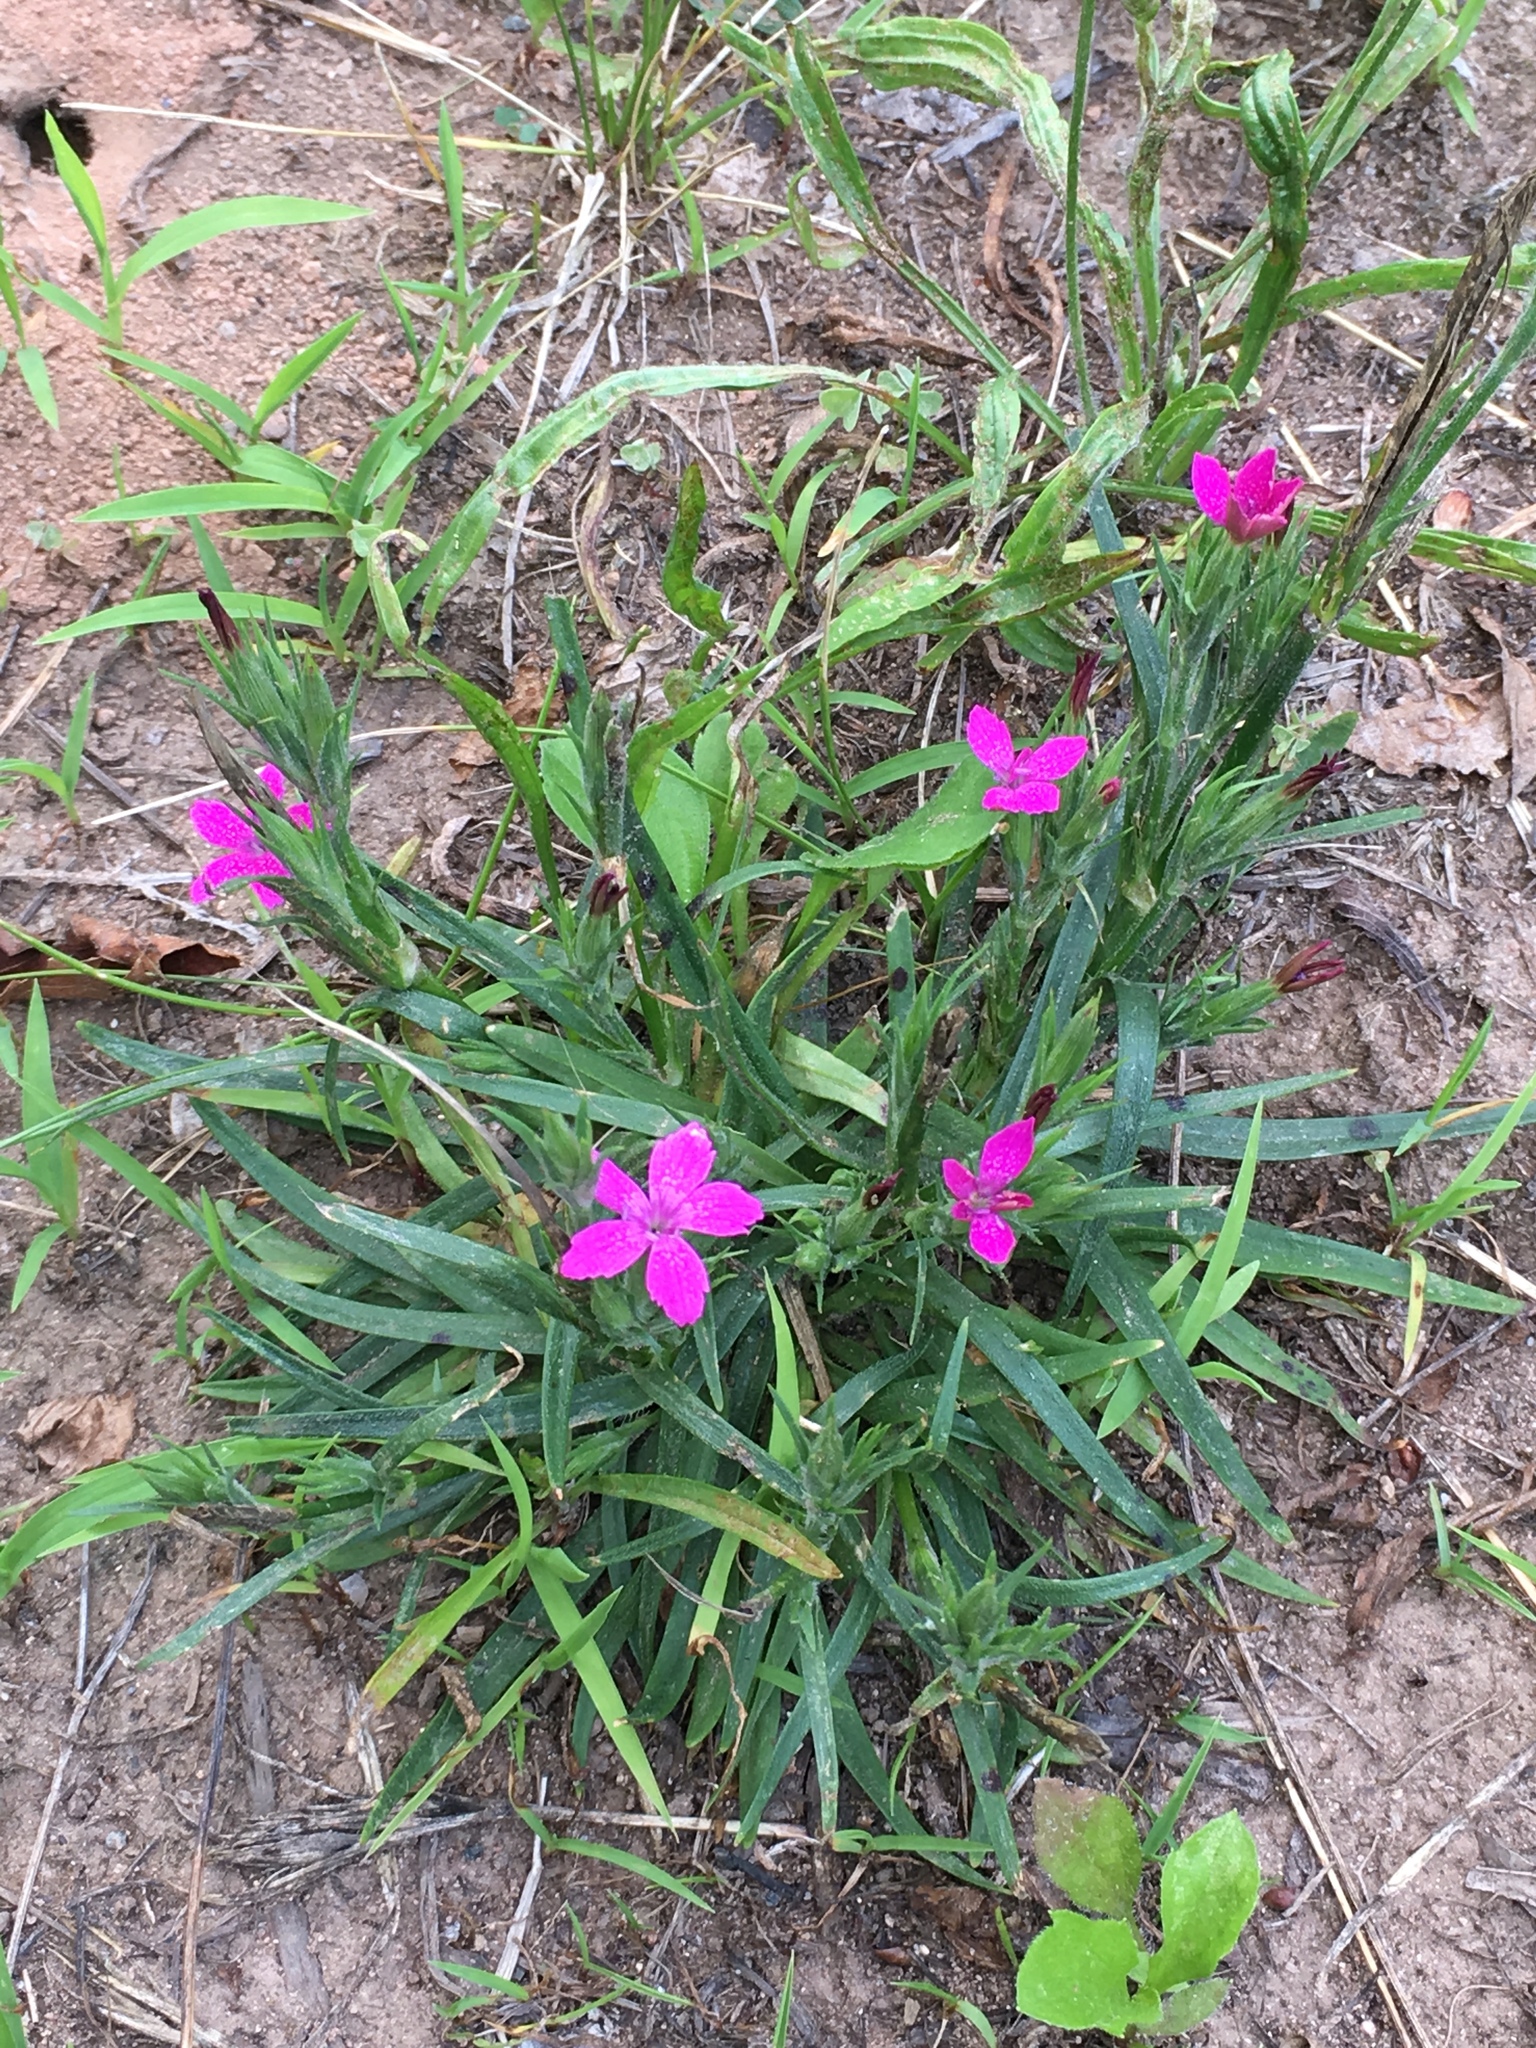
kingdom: Plantae
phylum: Tracheophyta
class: Magnoliopsida
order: Caryophyllales
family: Caryophyllaceae
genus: Dianthus
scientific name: Dianthus armeria
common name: Deptford pink
